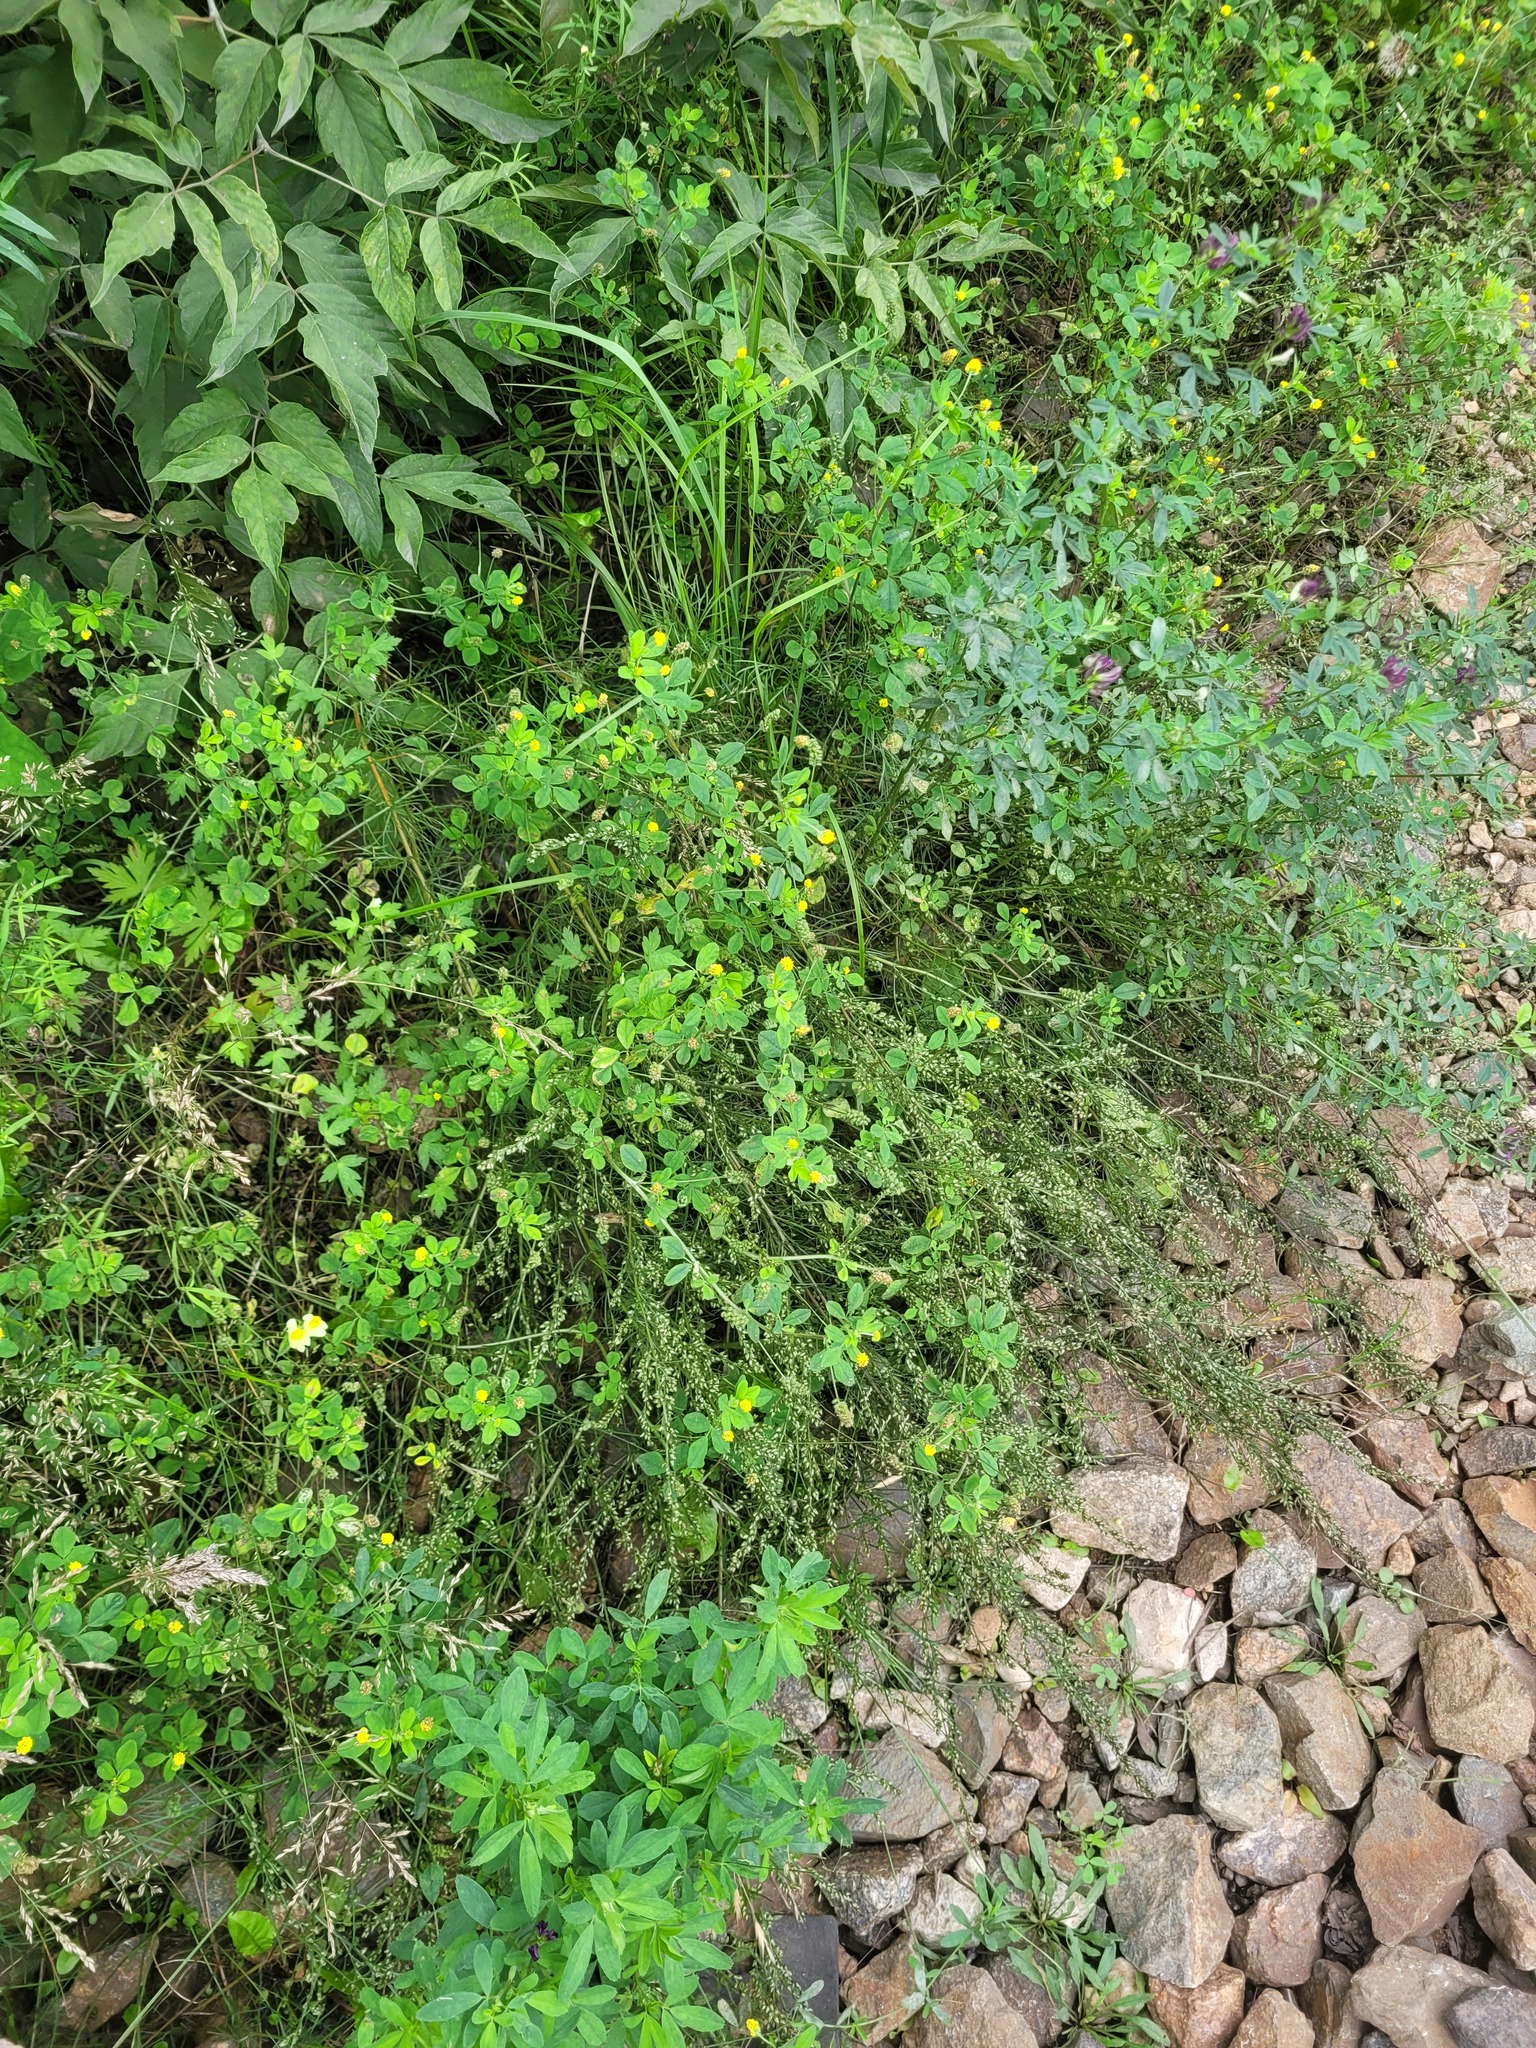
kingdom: Plantae
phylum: Tracheophyta
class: Magnoliopsida
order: Fabales
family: Fabaceae
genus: Medicago
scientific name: Medicago lupulina
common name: Black medick
